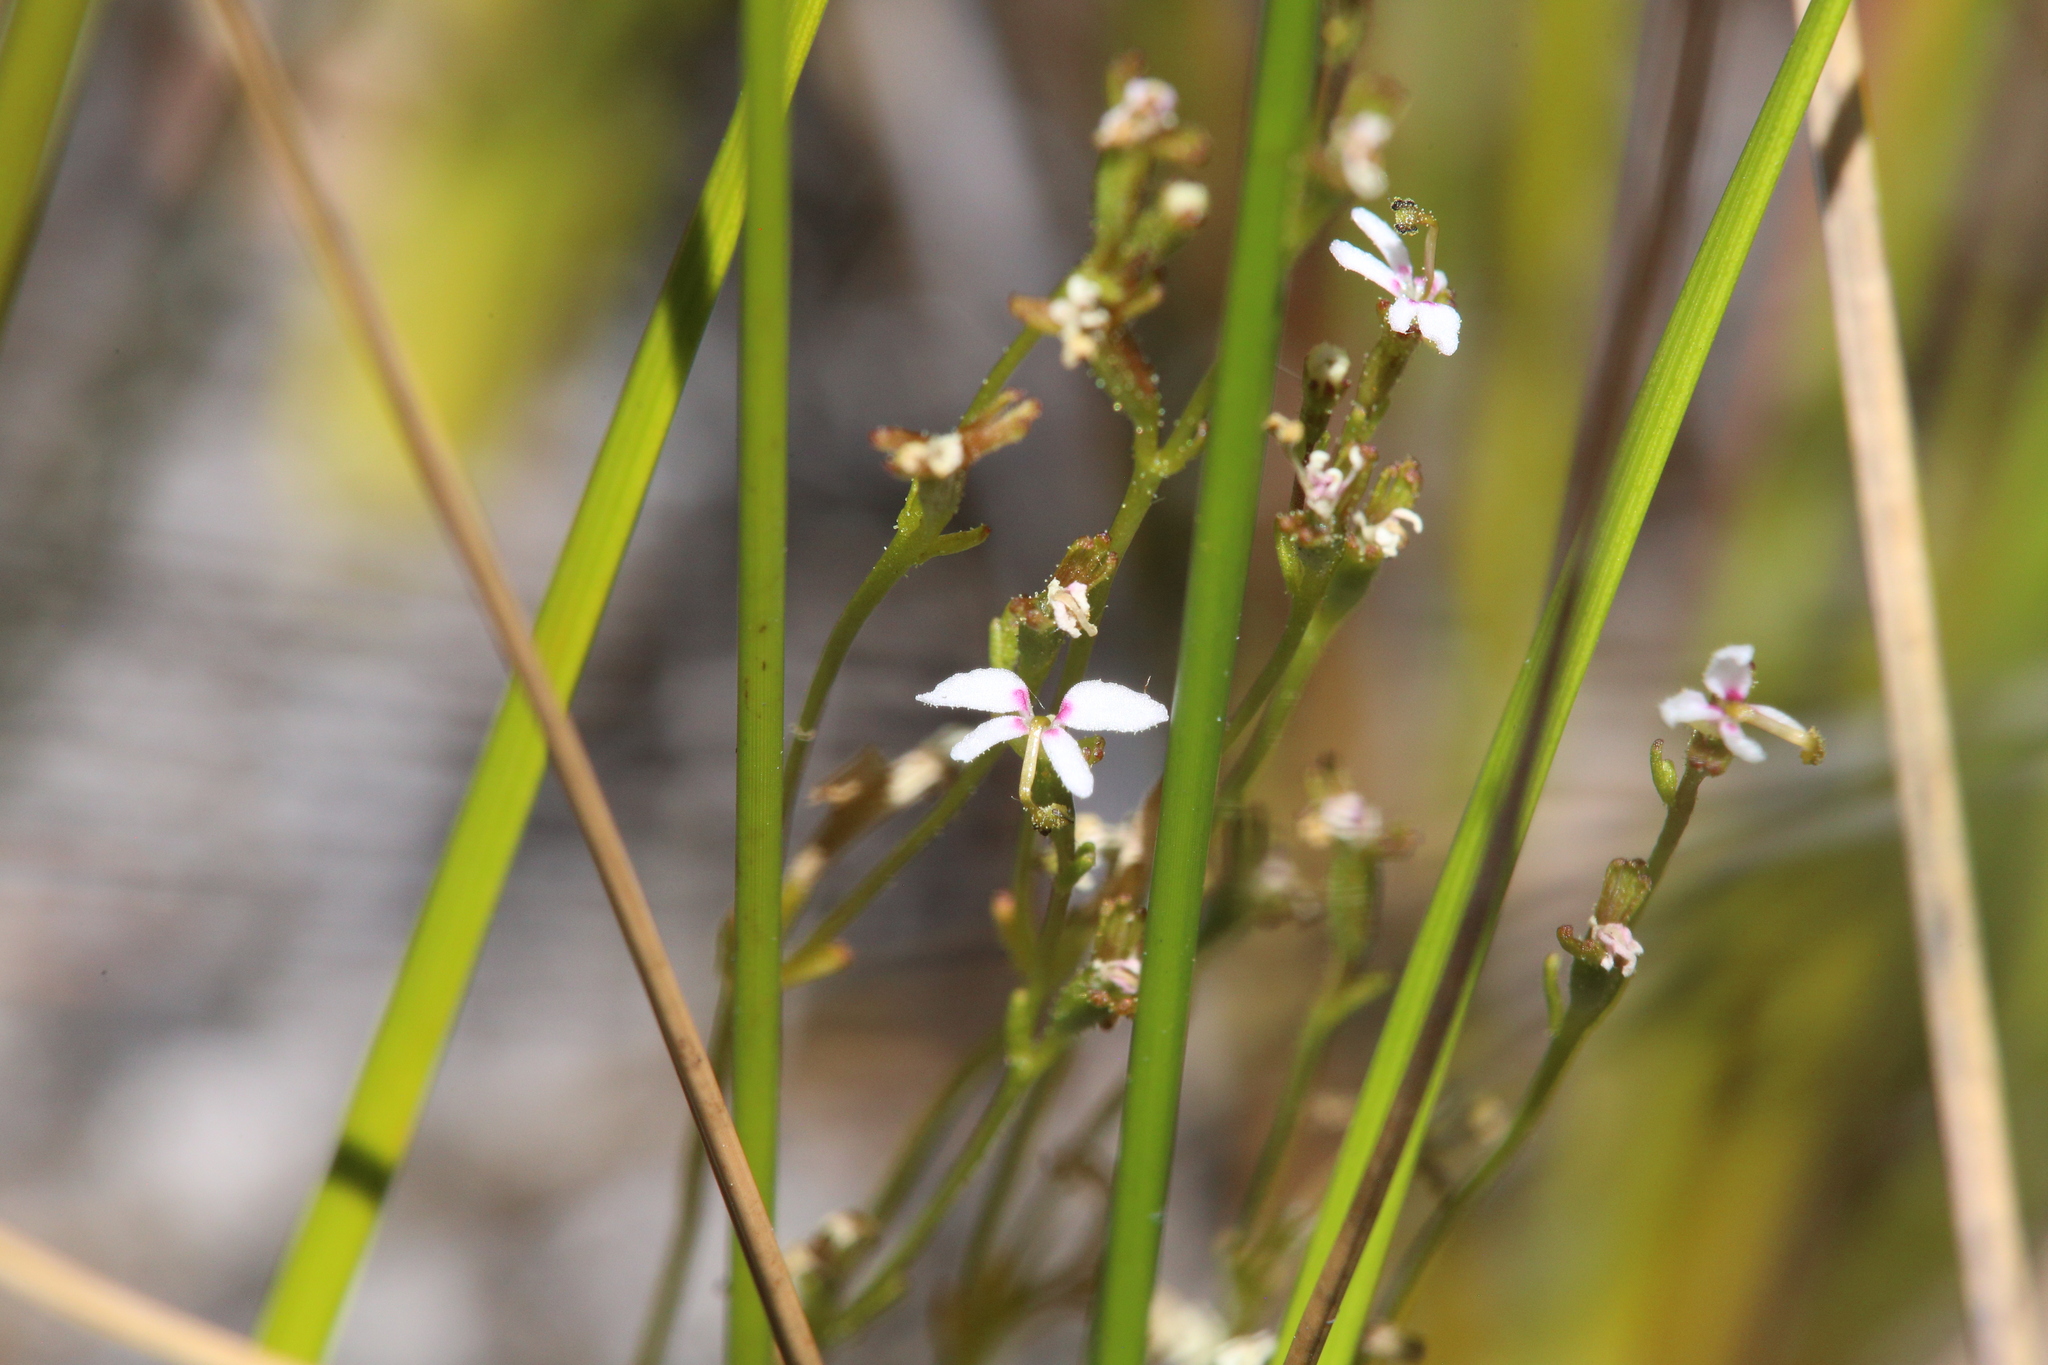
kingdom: Plantae
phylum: Tracheophyta
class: Magnoliopsida
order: Asterales
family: Stylidiaceae
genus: Stylidium
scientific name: Stylidium pygmaeum
